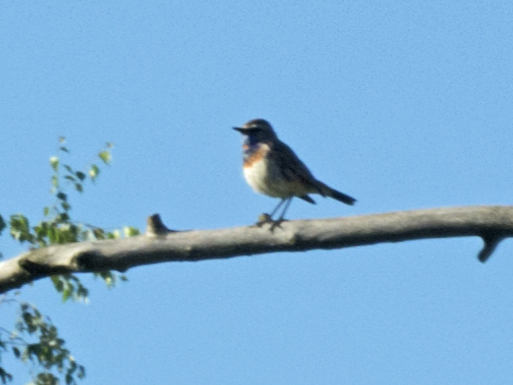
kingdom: Animalia
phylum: Chordata
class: Aves
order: Passeriformes
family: Muscicapidae
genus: Luscinia
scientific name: Luscinia svecica
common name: Bluethroat
